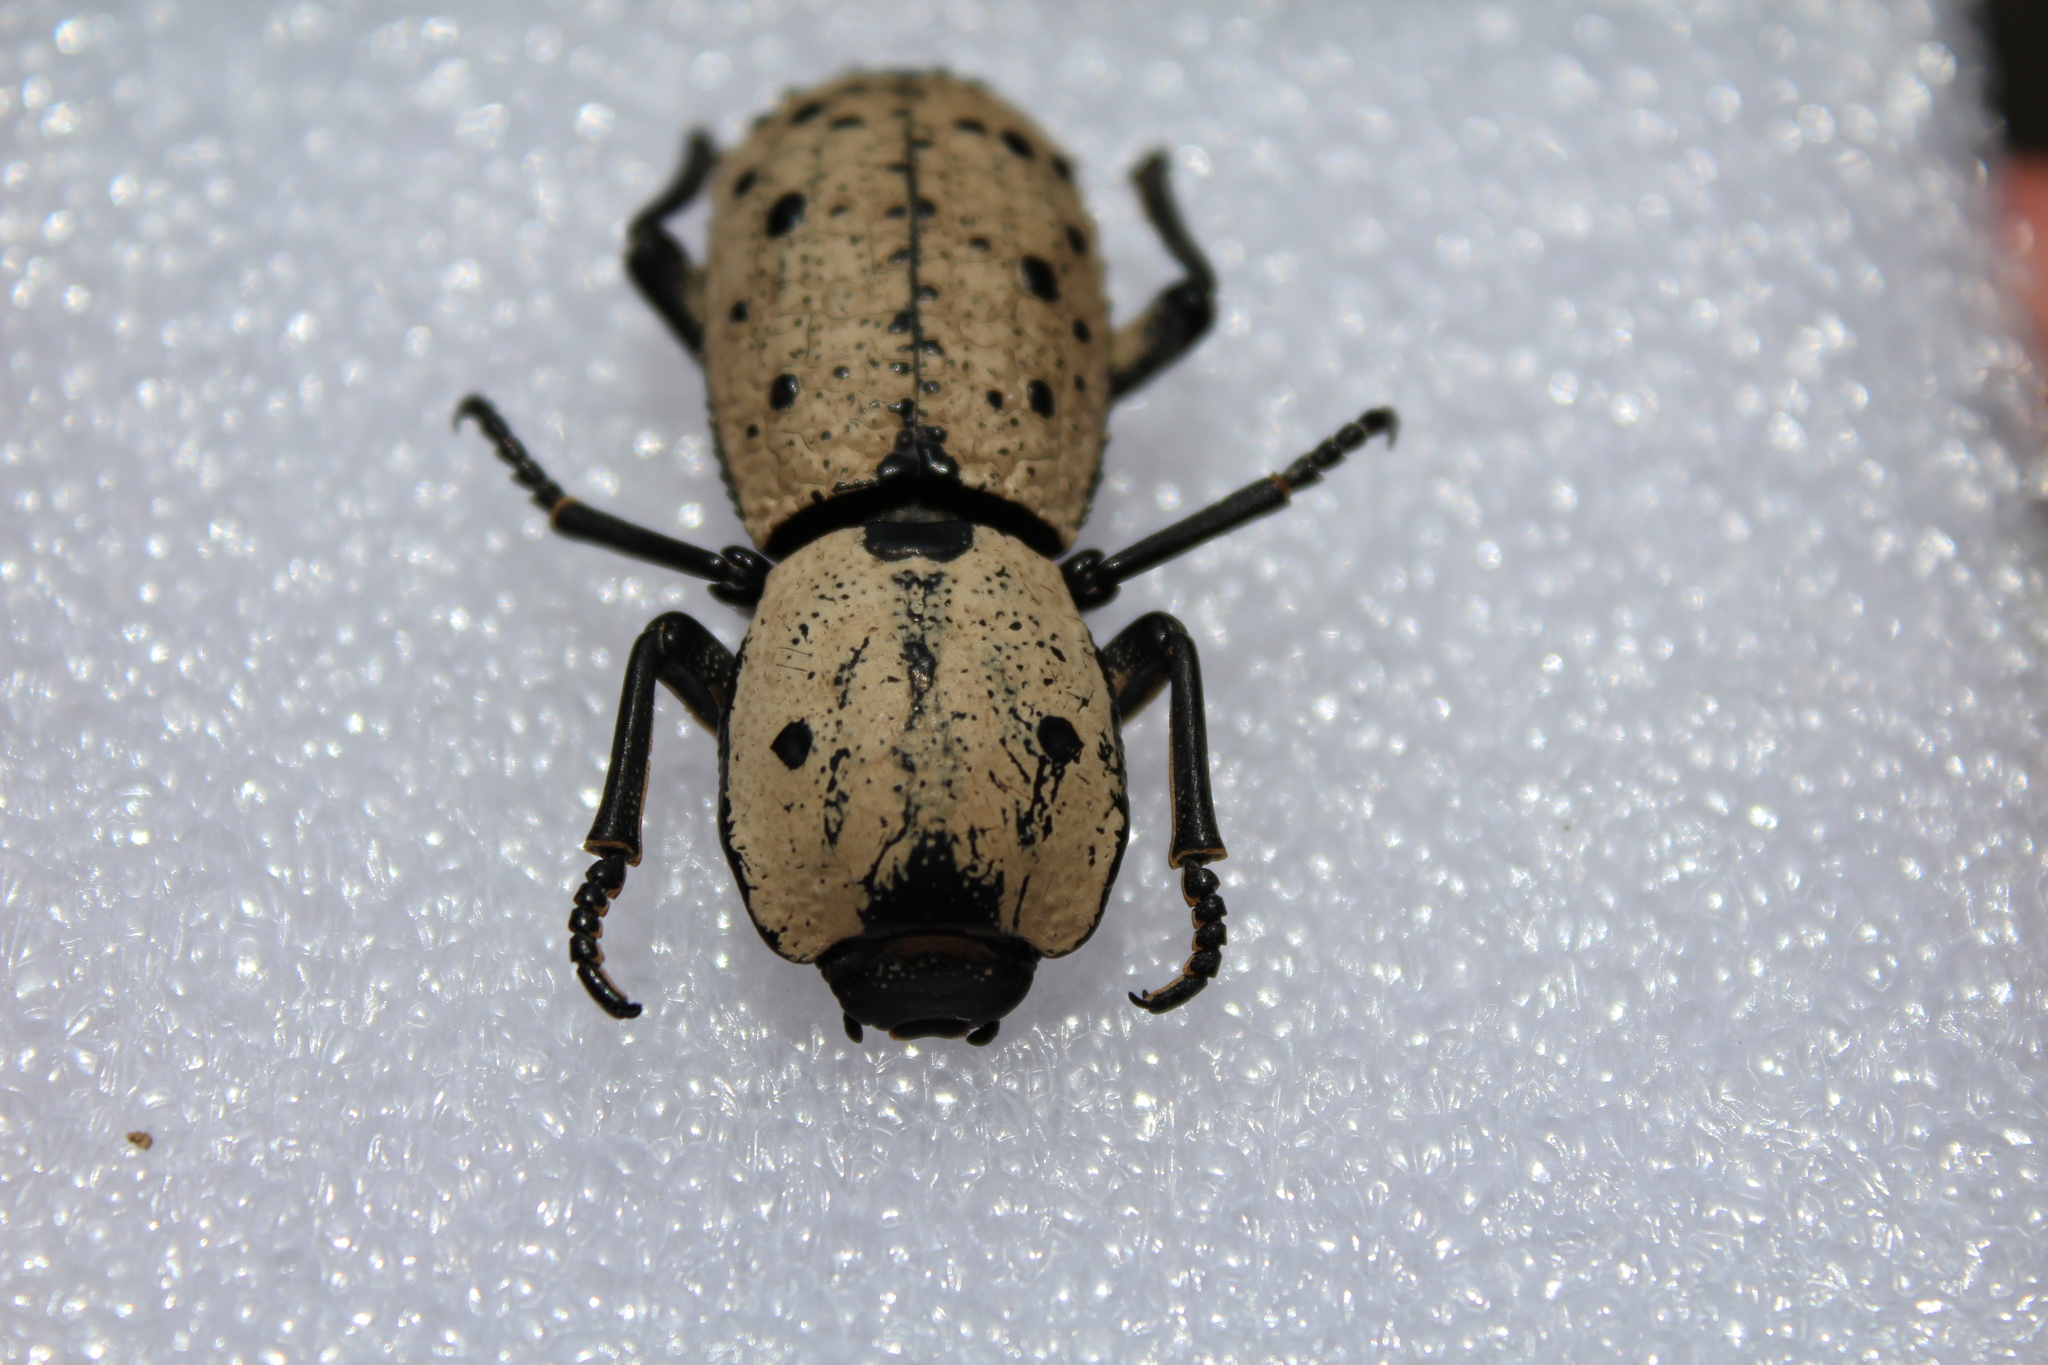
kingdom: Animalia
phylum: Arthropoda
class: Insecta
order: Coleoptera
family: Zopheridae
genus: Zopherus
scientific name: Zopherus
